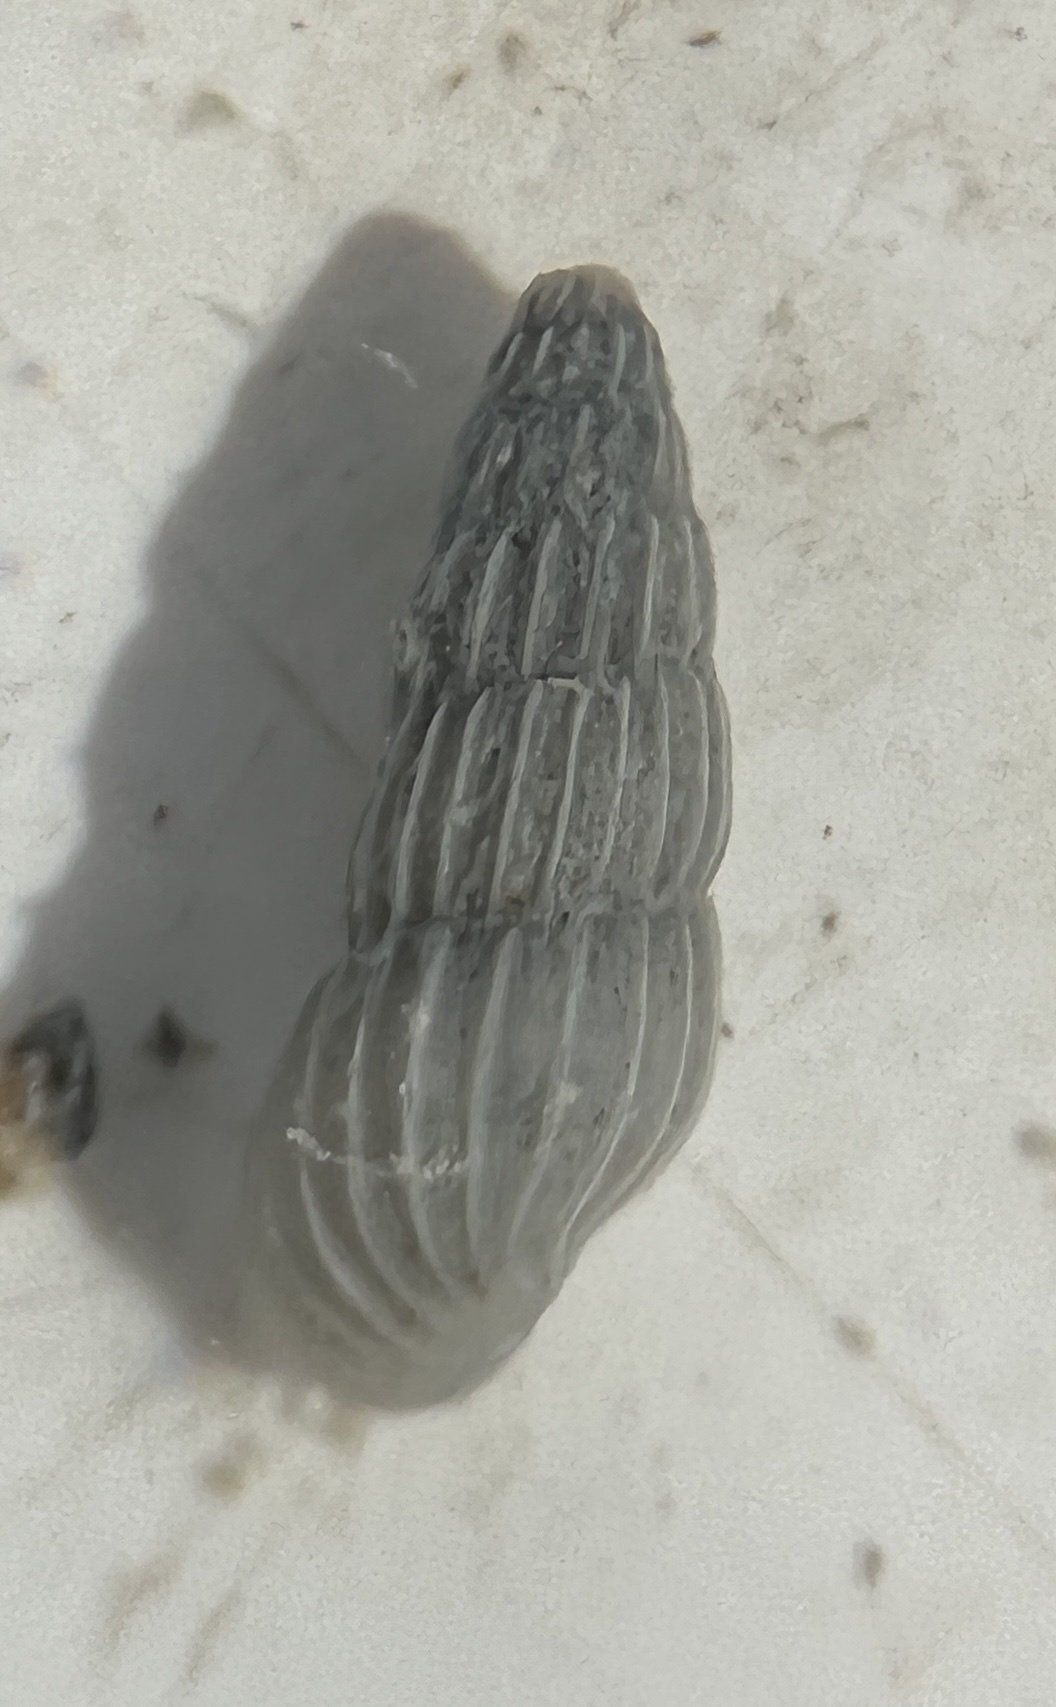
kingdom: Animalia
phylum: Mollusca
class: Gastropoda
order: Littorinimorpha
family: Rissoinidae
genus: Rissoina
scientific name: Rissoina dyscrita
